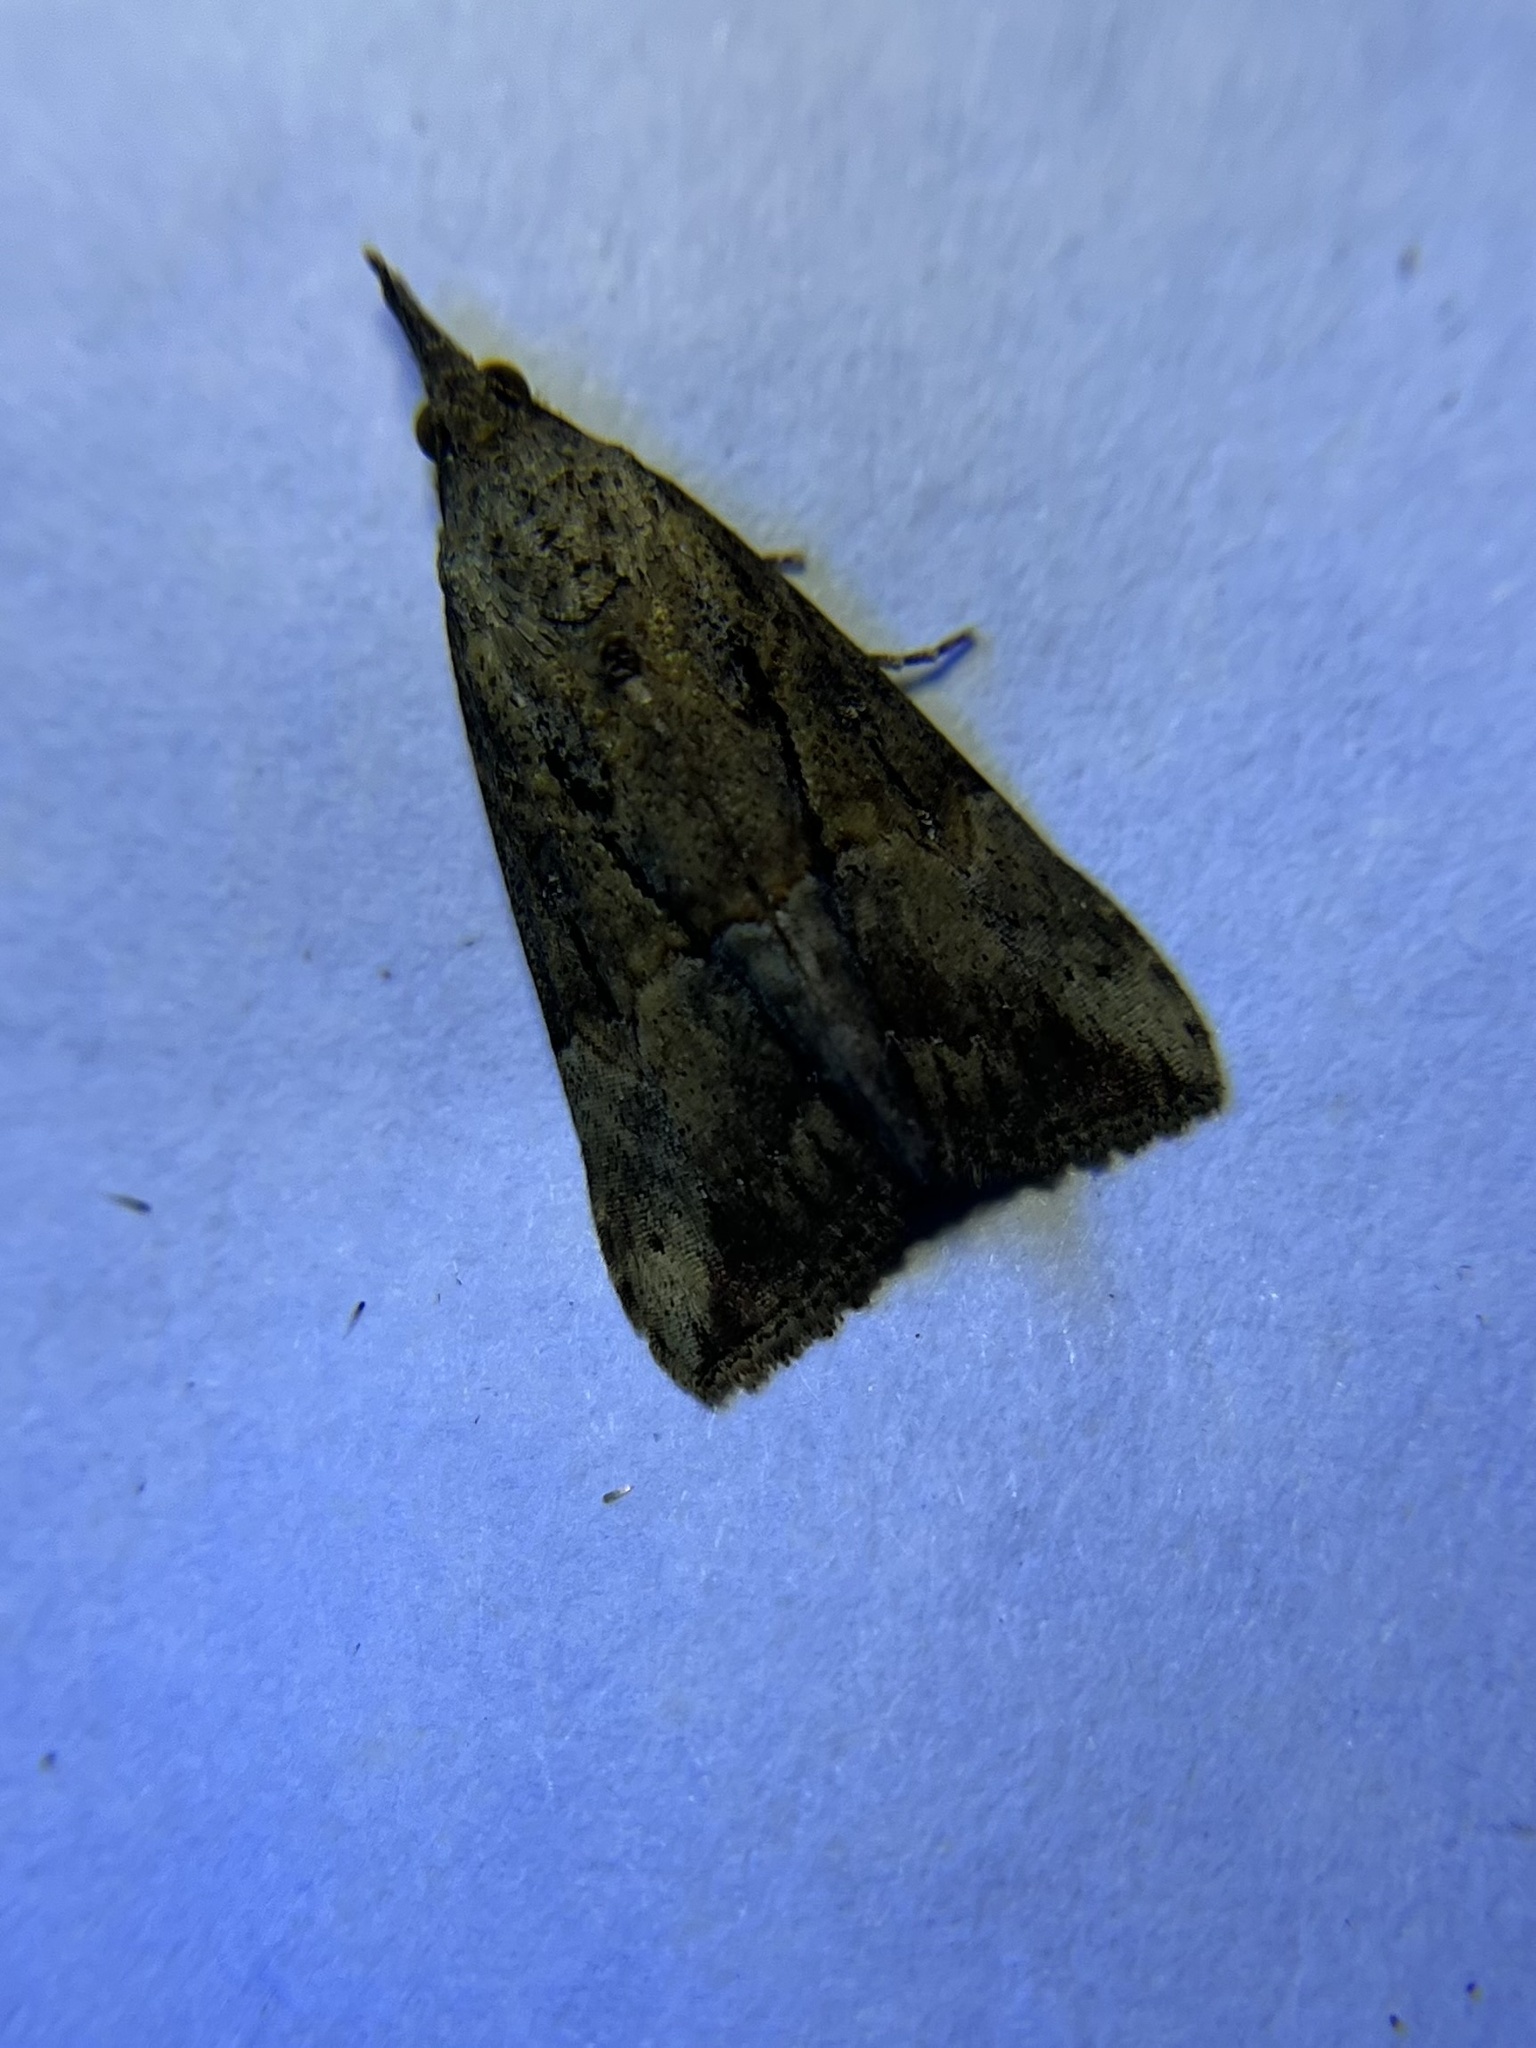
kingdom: Animalia
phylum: Arthropoda
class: Insecta
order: Lepidoptera
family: Erebidae
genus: Hypena
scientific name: Hypena scabra
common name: Green cloverworm
